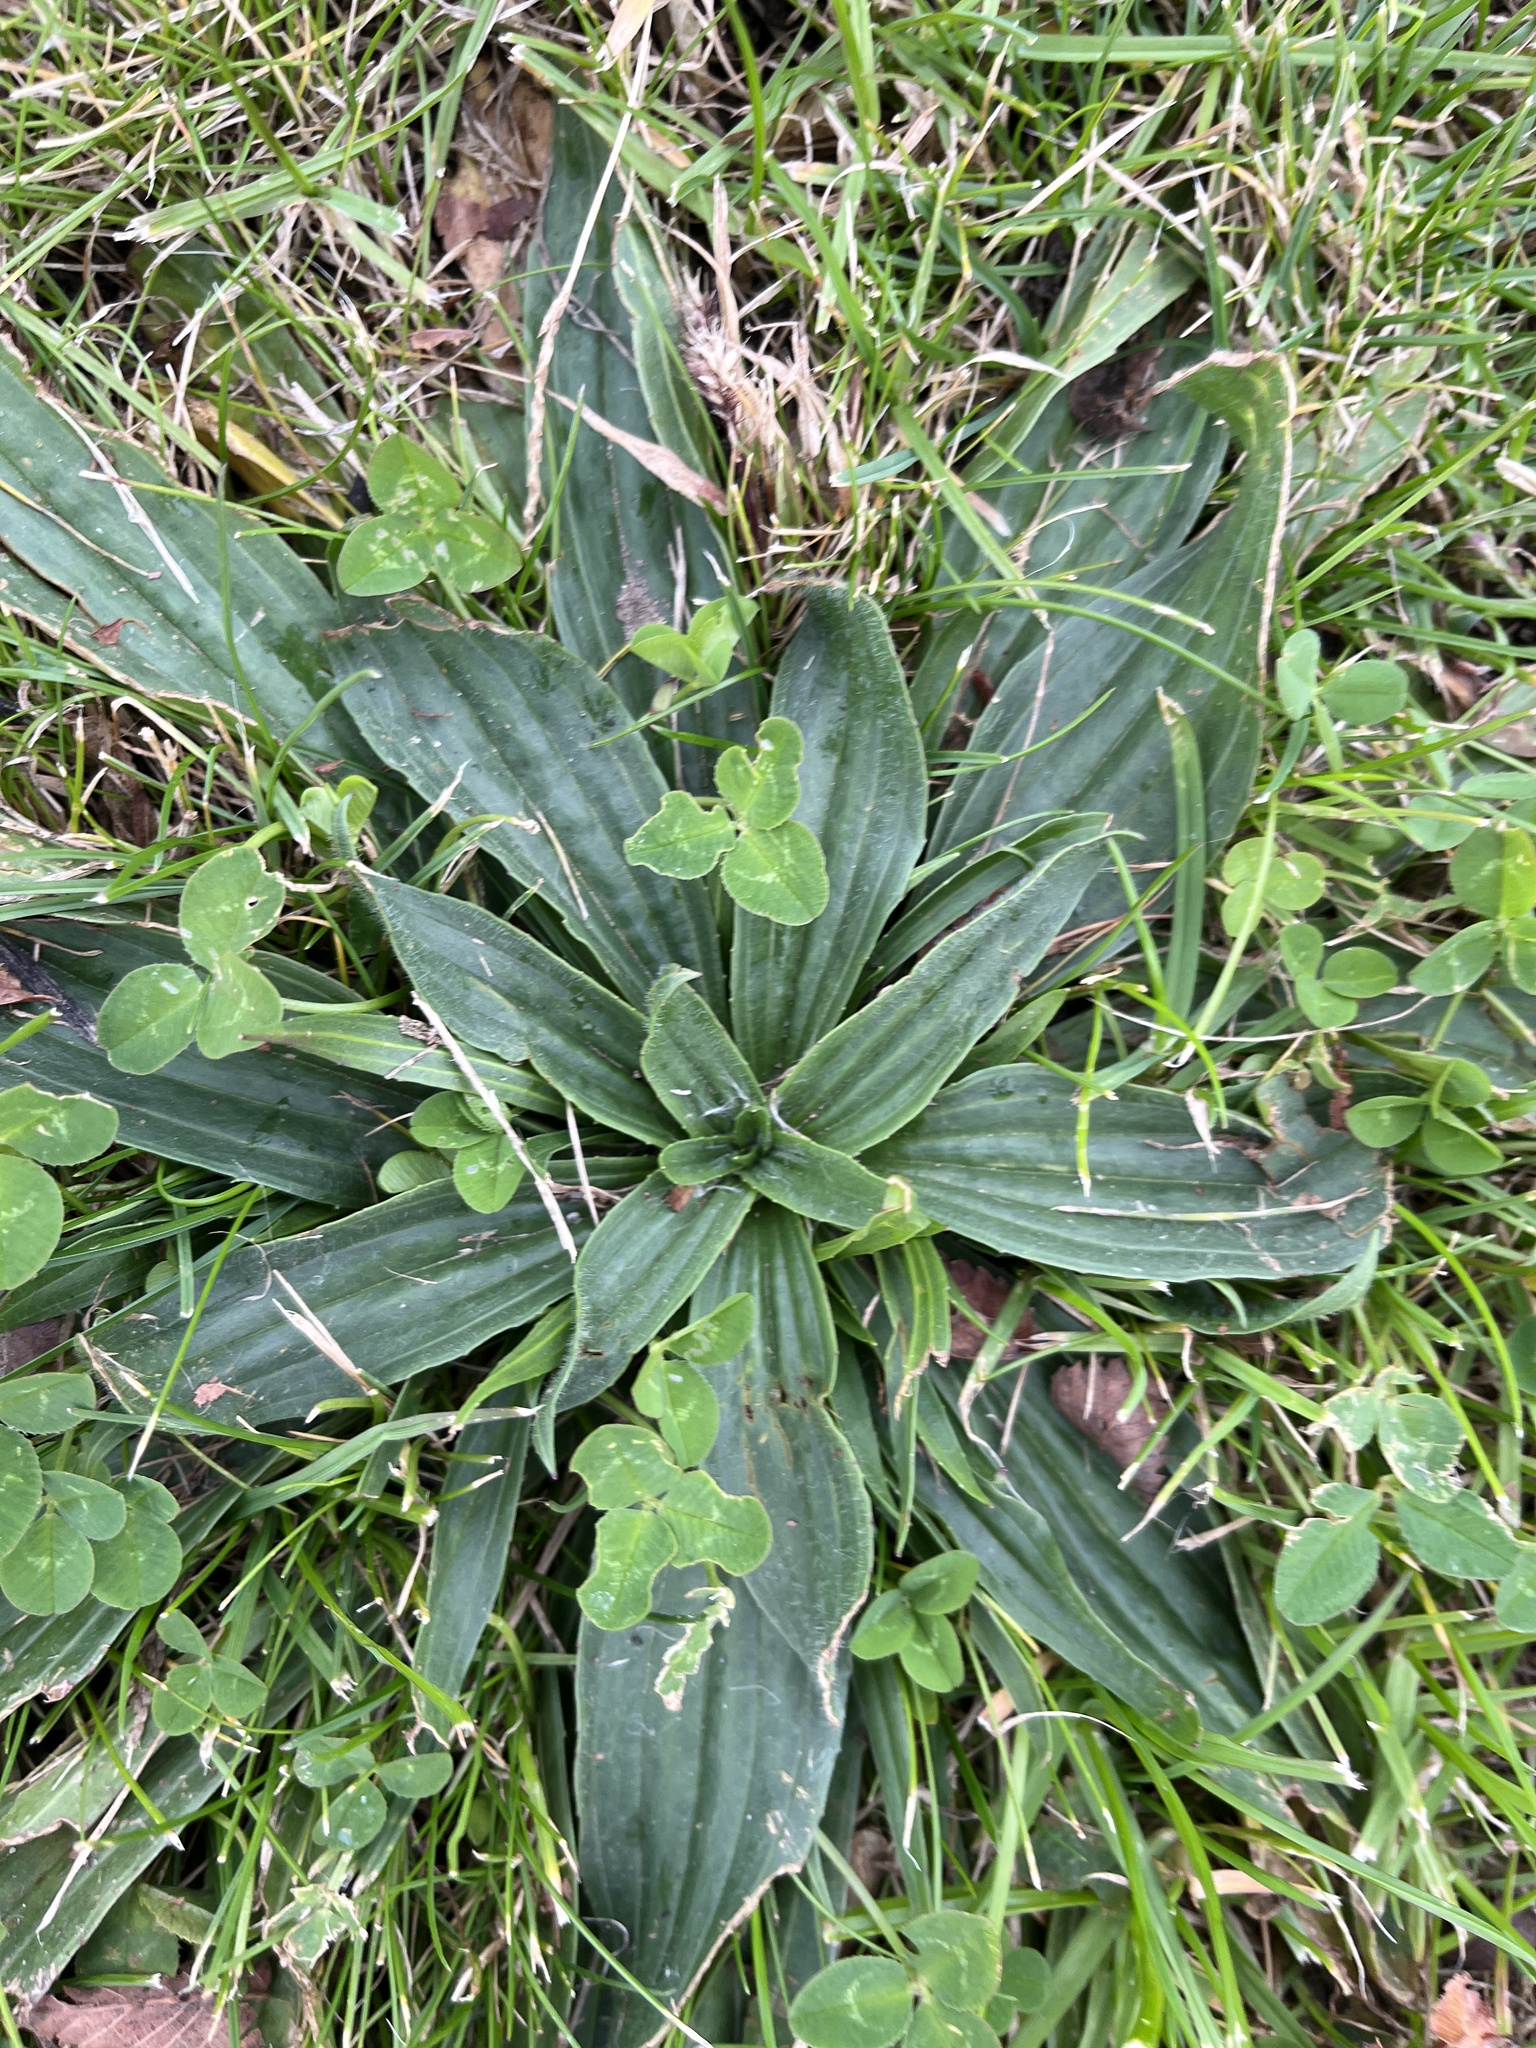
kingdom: Plantae
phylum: Tracheophyta
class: Magnoliopsida
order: Lamiales
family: Plantaginaceae
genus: Plantago
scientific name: Plantago lanceolata
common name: Ribwort plantain
